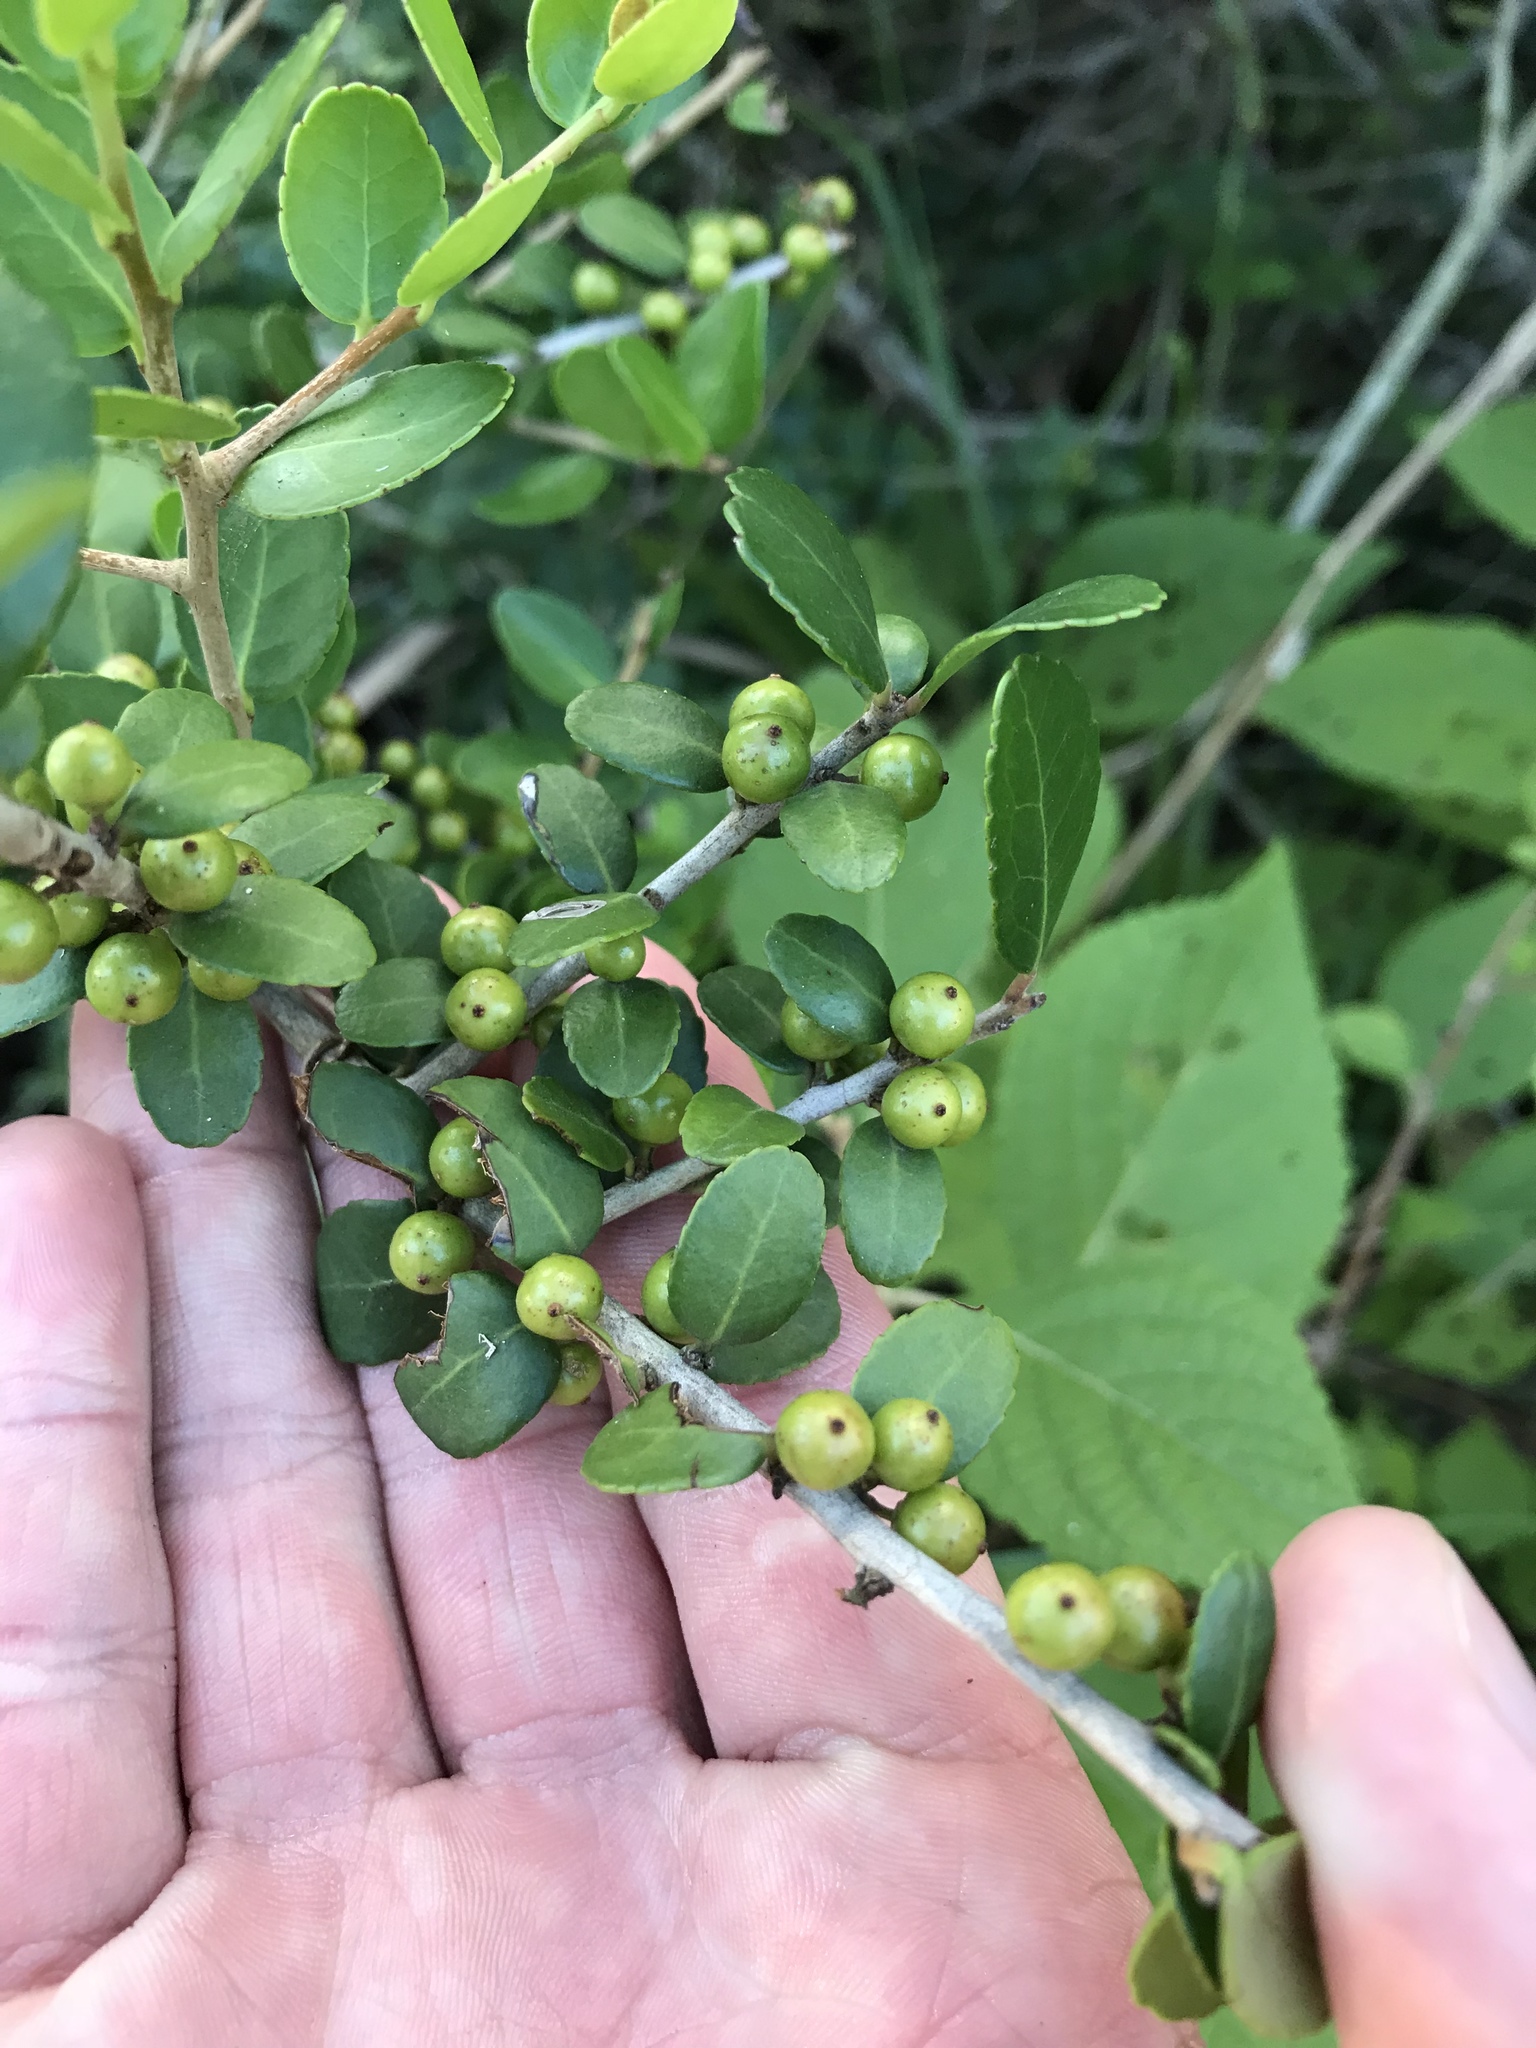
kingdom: Plantae
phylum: Tracheophyta
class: Magnoliopsida
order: Aquifoliales
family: Aquifoliaceae
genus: Ilex
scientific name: Ilex vomitoria
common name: Yaupon holly
